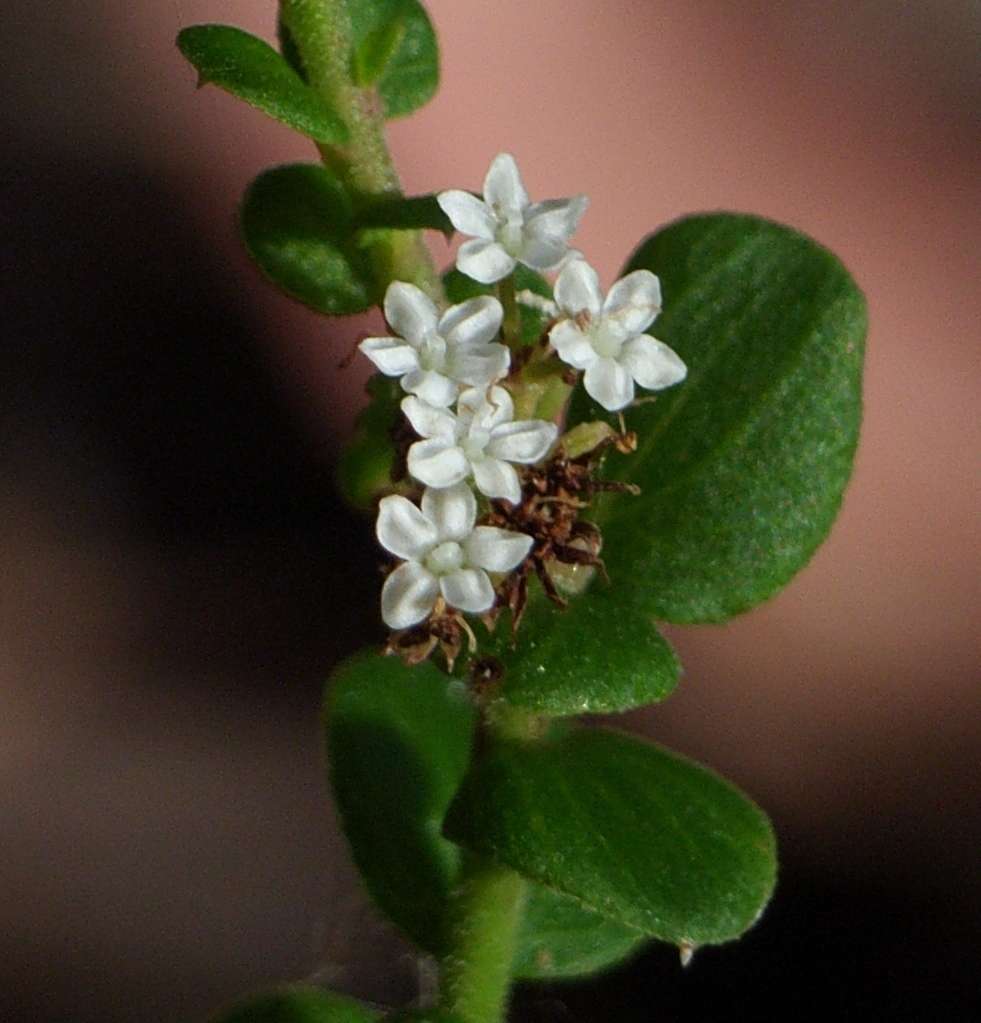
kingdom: Plantae
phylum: Tracheophyta
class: Magnoliopsida
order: Apiales
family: Apiaceae
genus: Platysace
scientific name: Platysace lanceolata
